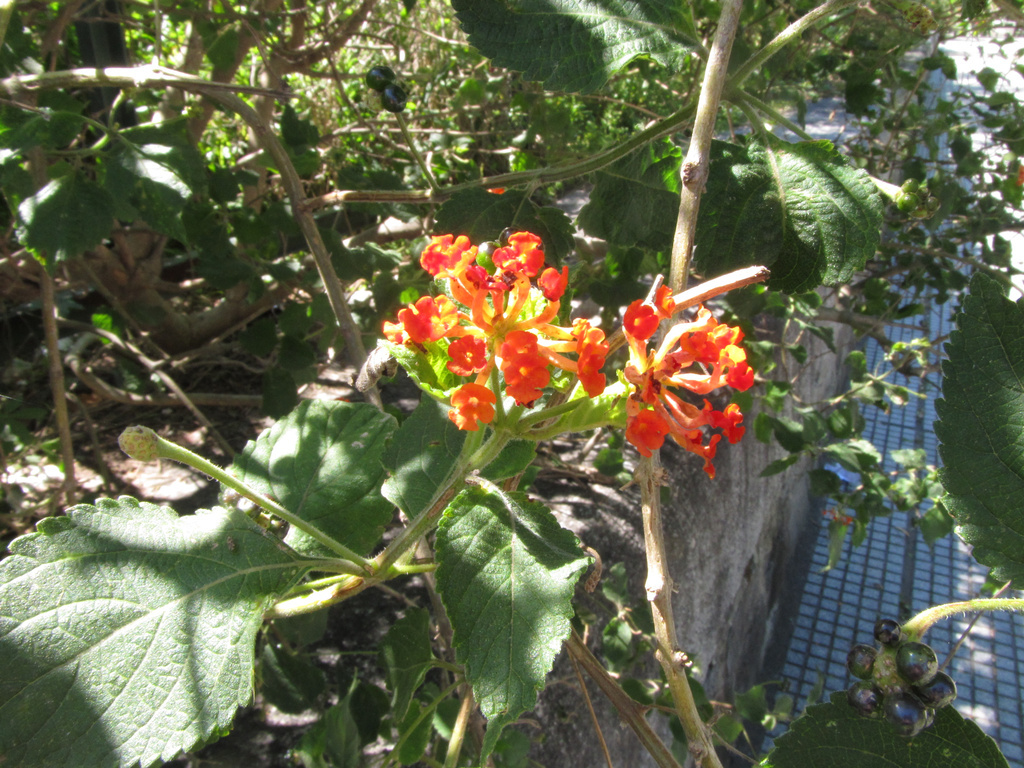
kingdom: Plantae
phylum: Tracheophyta
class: Magnoliopsida
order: Lamiales
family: Verbenaceae
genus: Lantana
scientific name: Lantana camara
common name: Lantana
